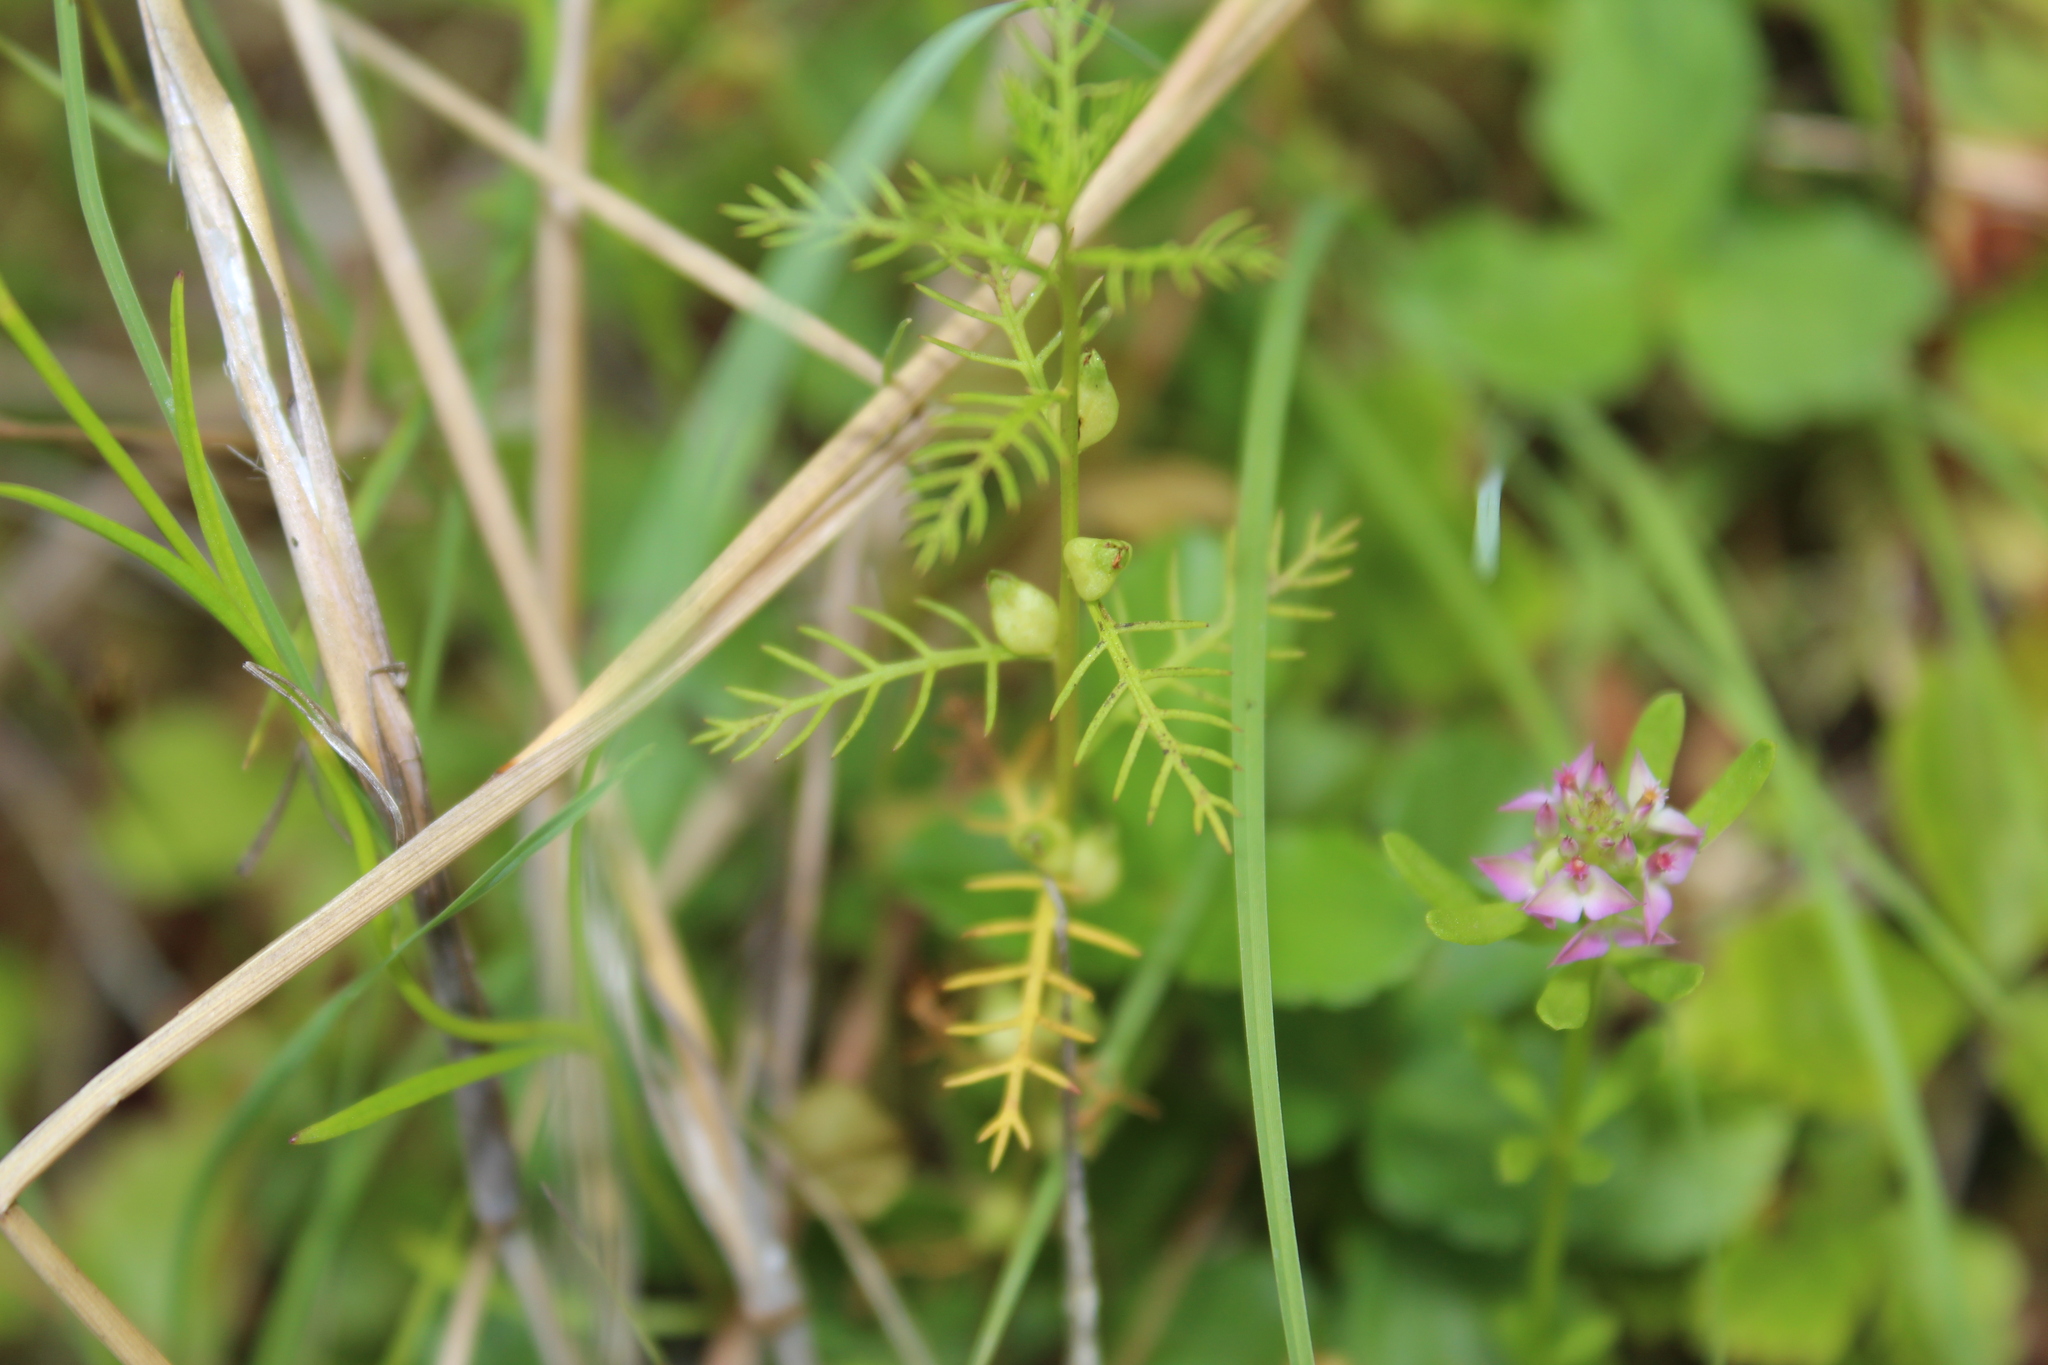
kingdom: Plantae
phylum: Tracheophyta
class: Magnoliopsida
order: Saxifragales
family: Haloragaceae
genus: Proserpinaca
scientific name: Proserpinaca pectinata
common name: Comb-leaved mermaidweed
